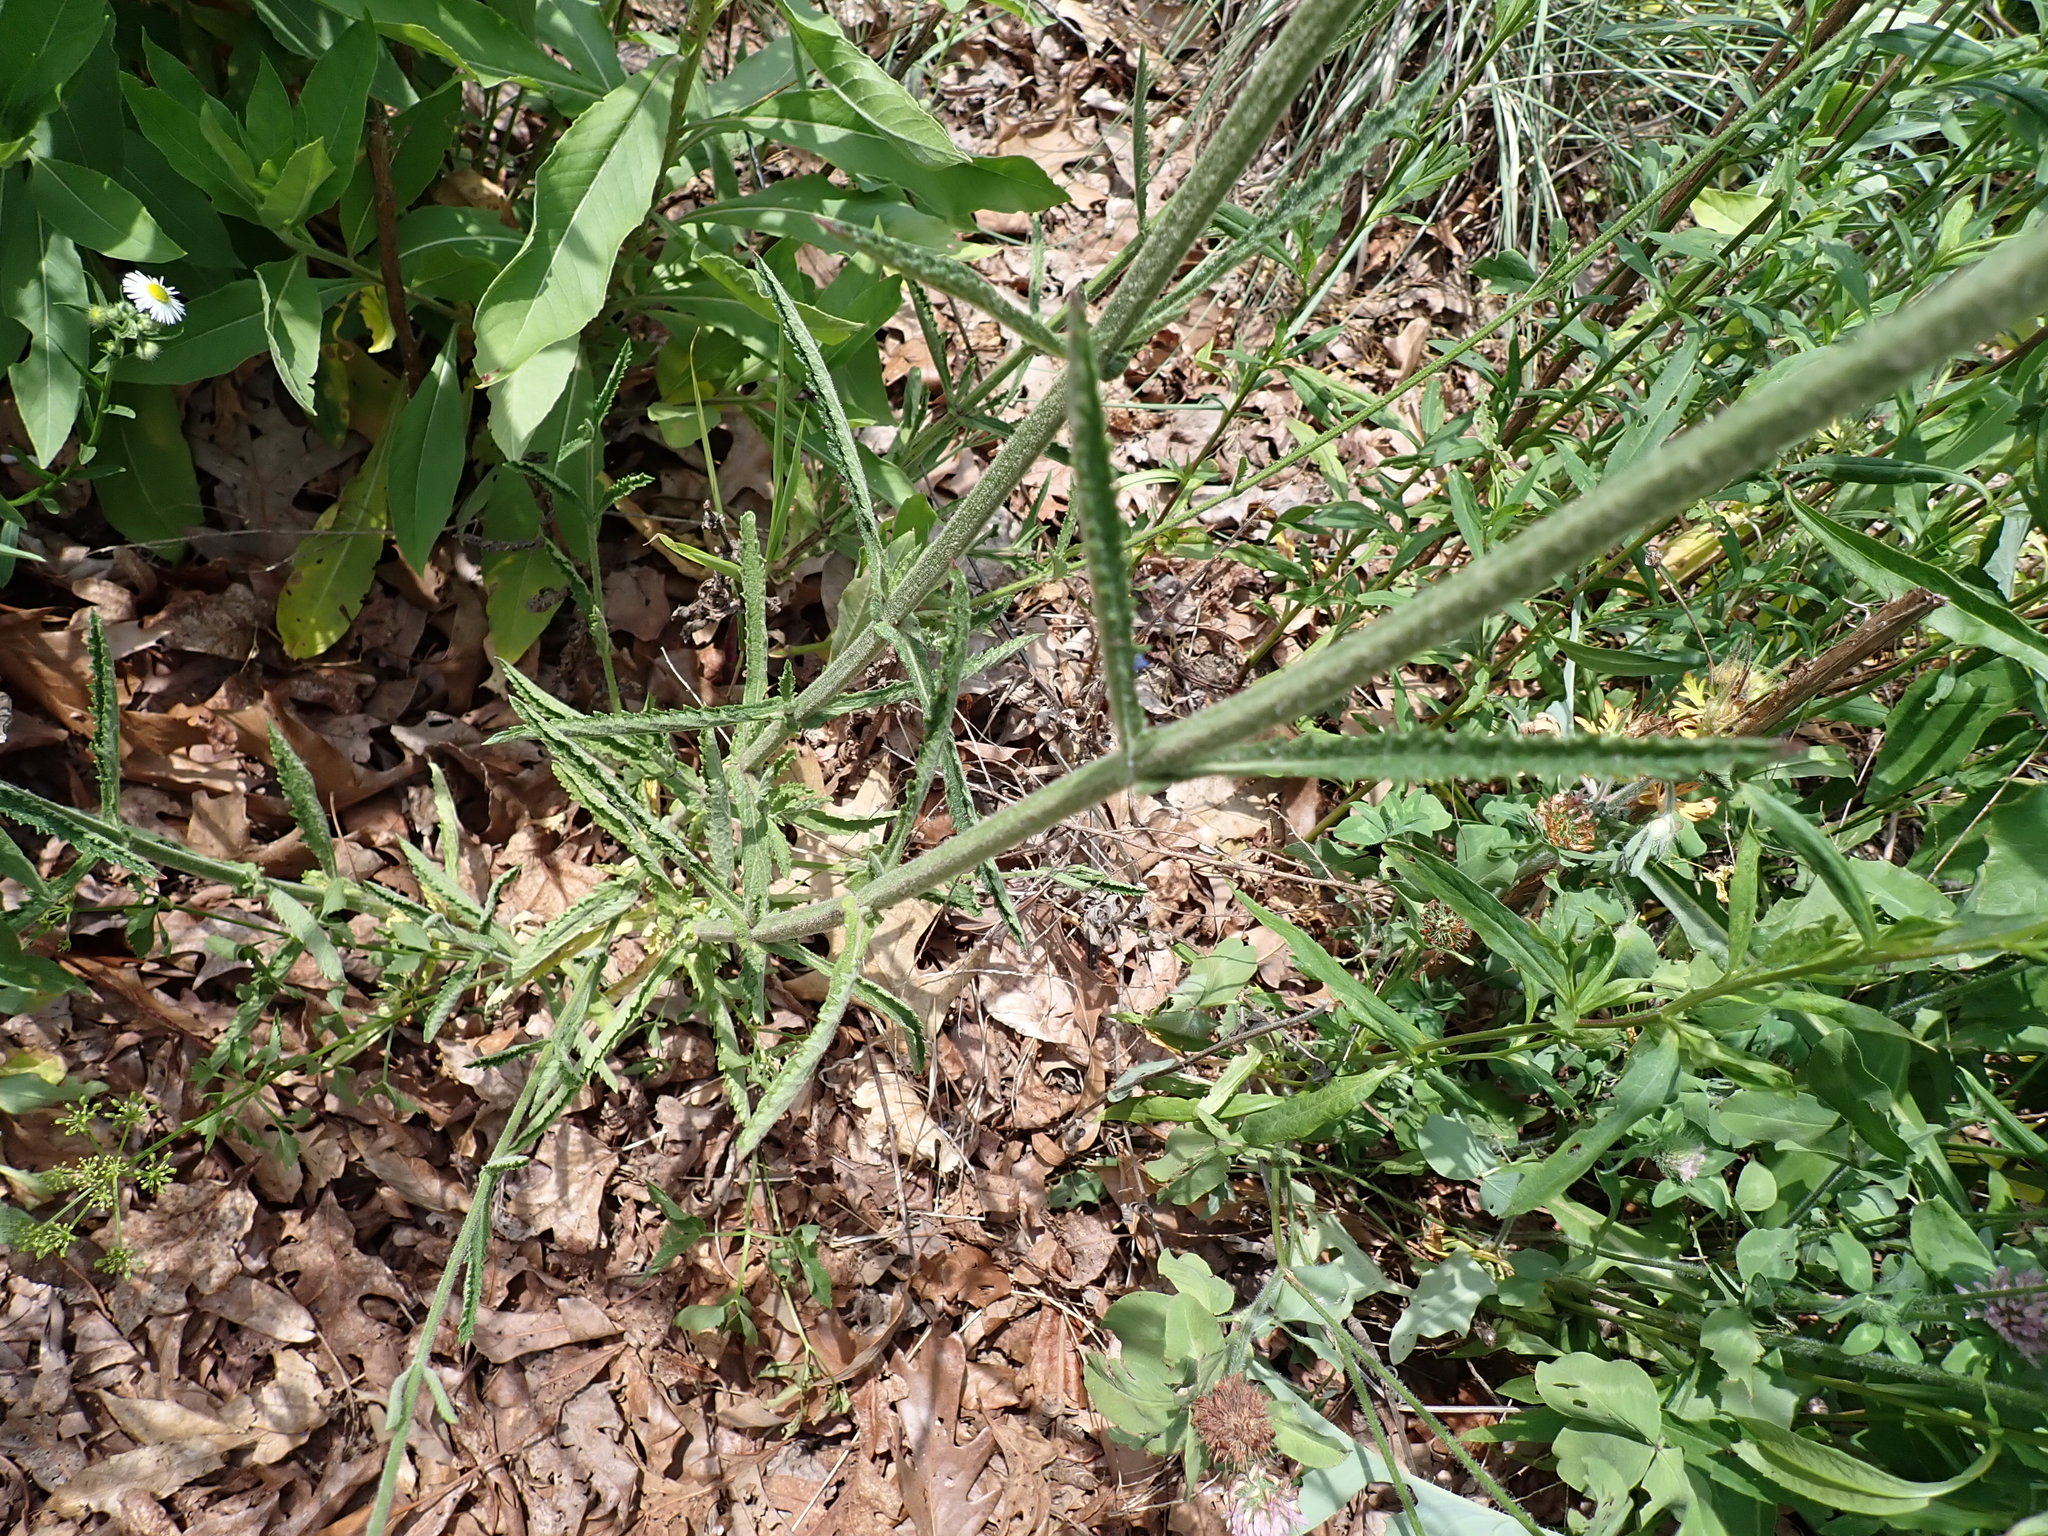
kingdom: Plantae
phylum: Tracheophyta
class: Magnoliopsida
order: Lamiales
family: Verbenaceae
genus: Verbena
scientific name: Verbena bonariensis
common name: Purpletop vervain
